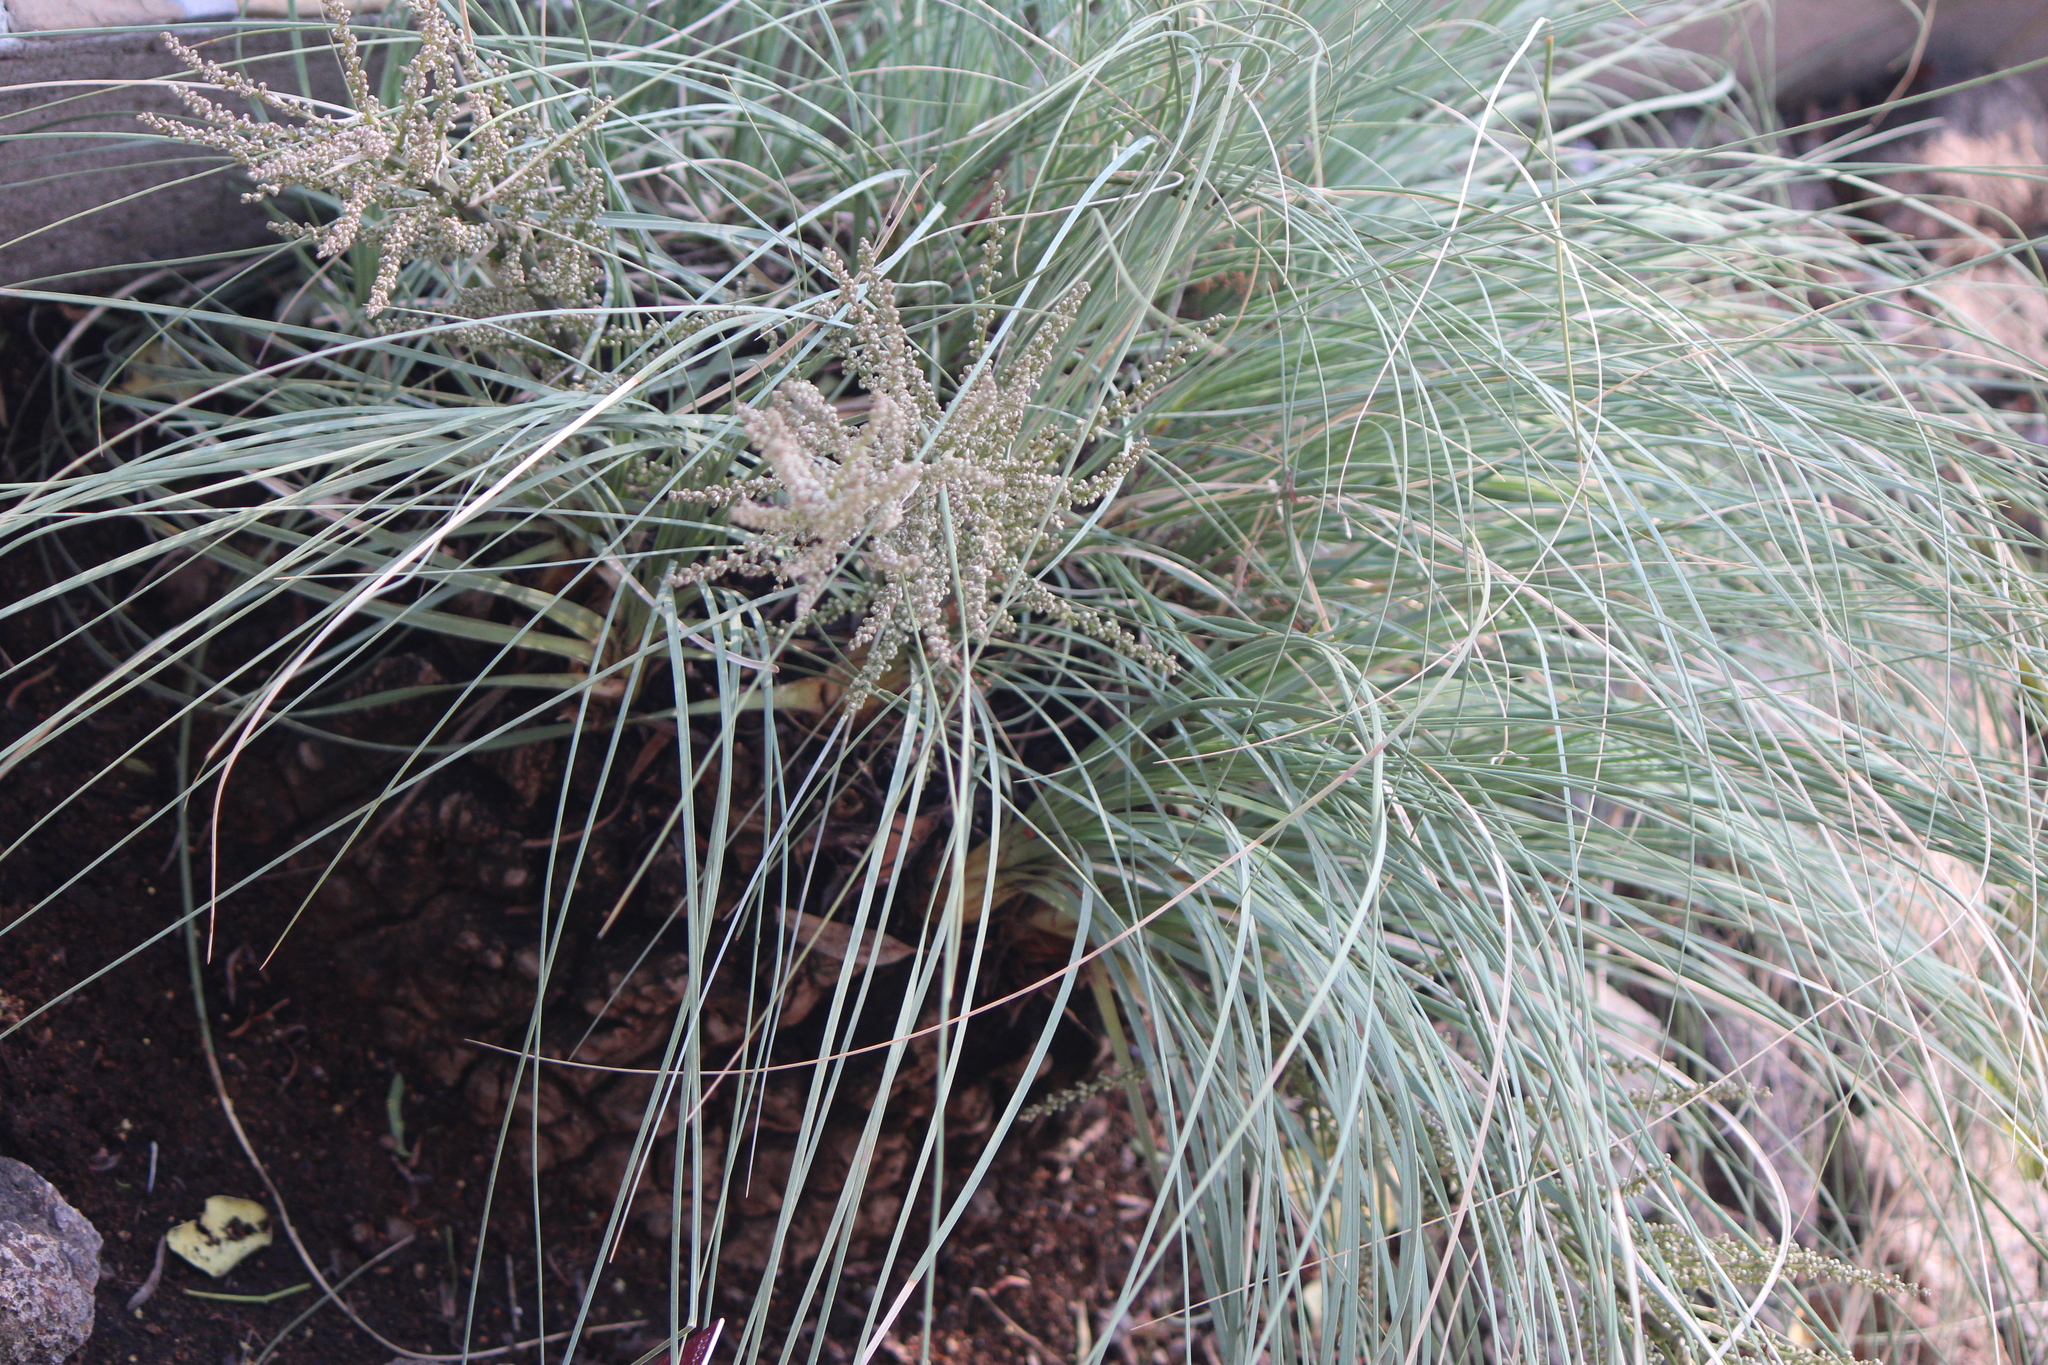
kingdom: Plantae
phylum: Tracheophyta
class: Liliopsida
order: Asparagales
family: Asparagaceae
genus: Beaucarnea
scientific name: Beaucarnea hookeri
